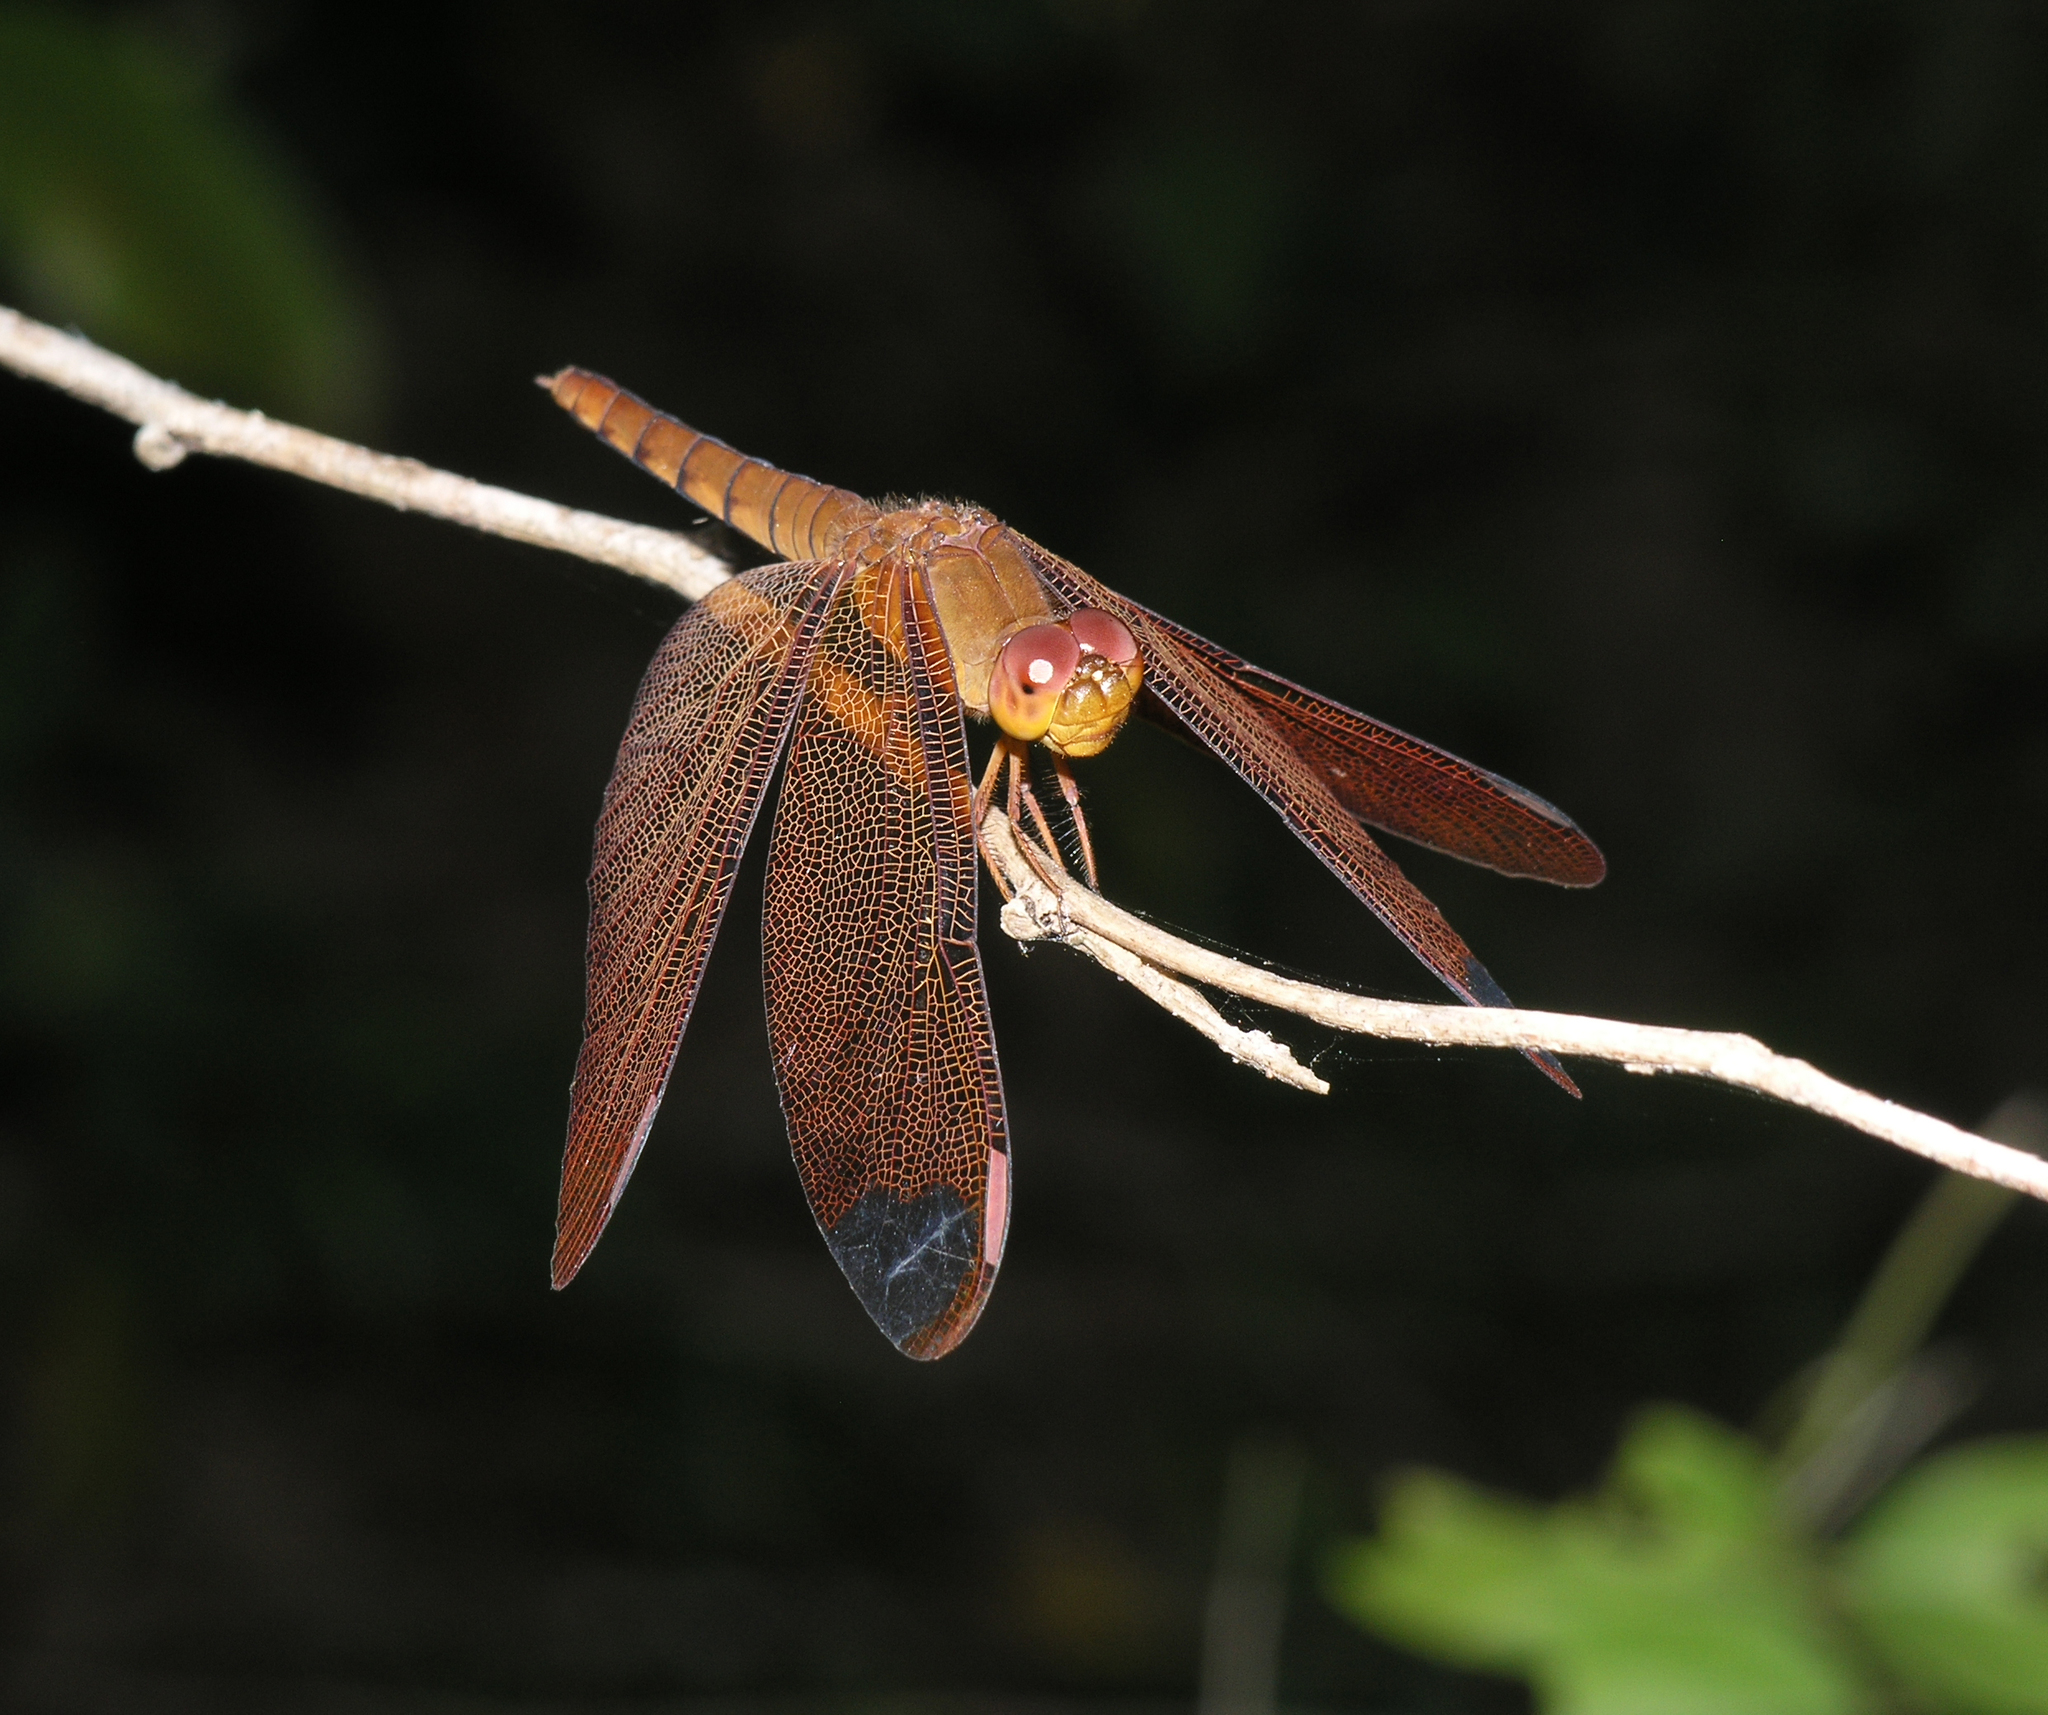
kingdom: Animalia
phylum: Arthropoda
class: Insecta
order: Odonata
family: Libellulidae
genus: Neurothemis
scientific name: Neurothemis fulvia
